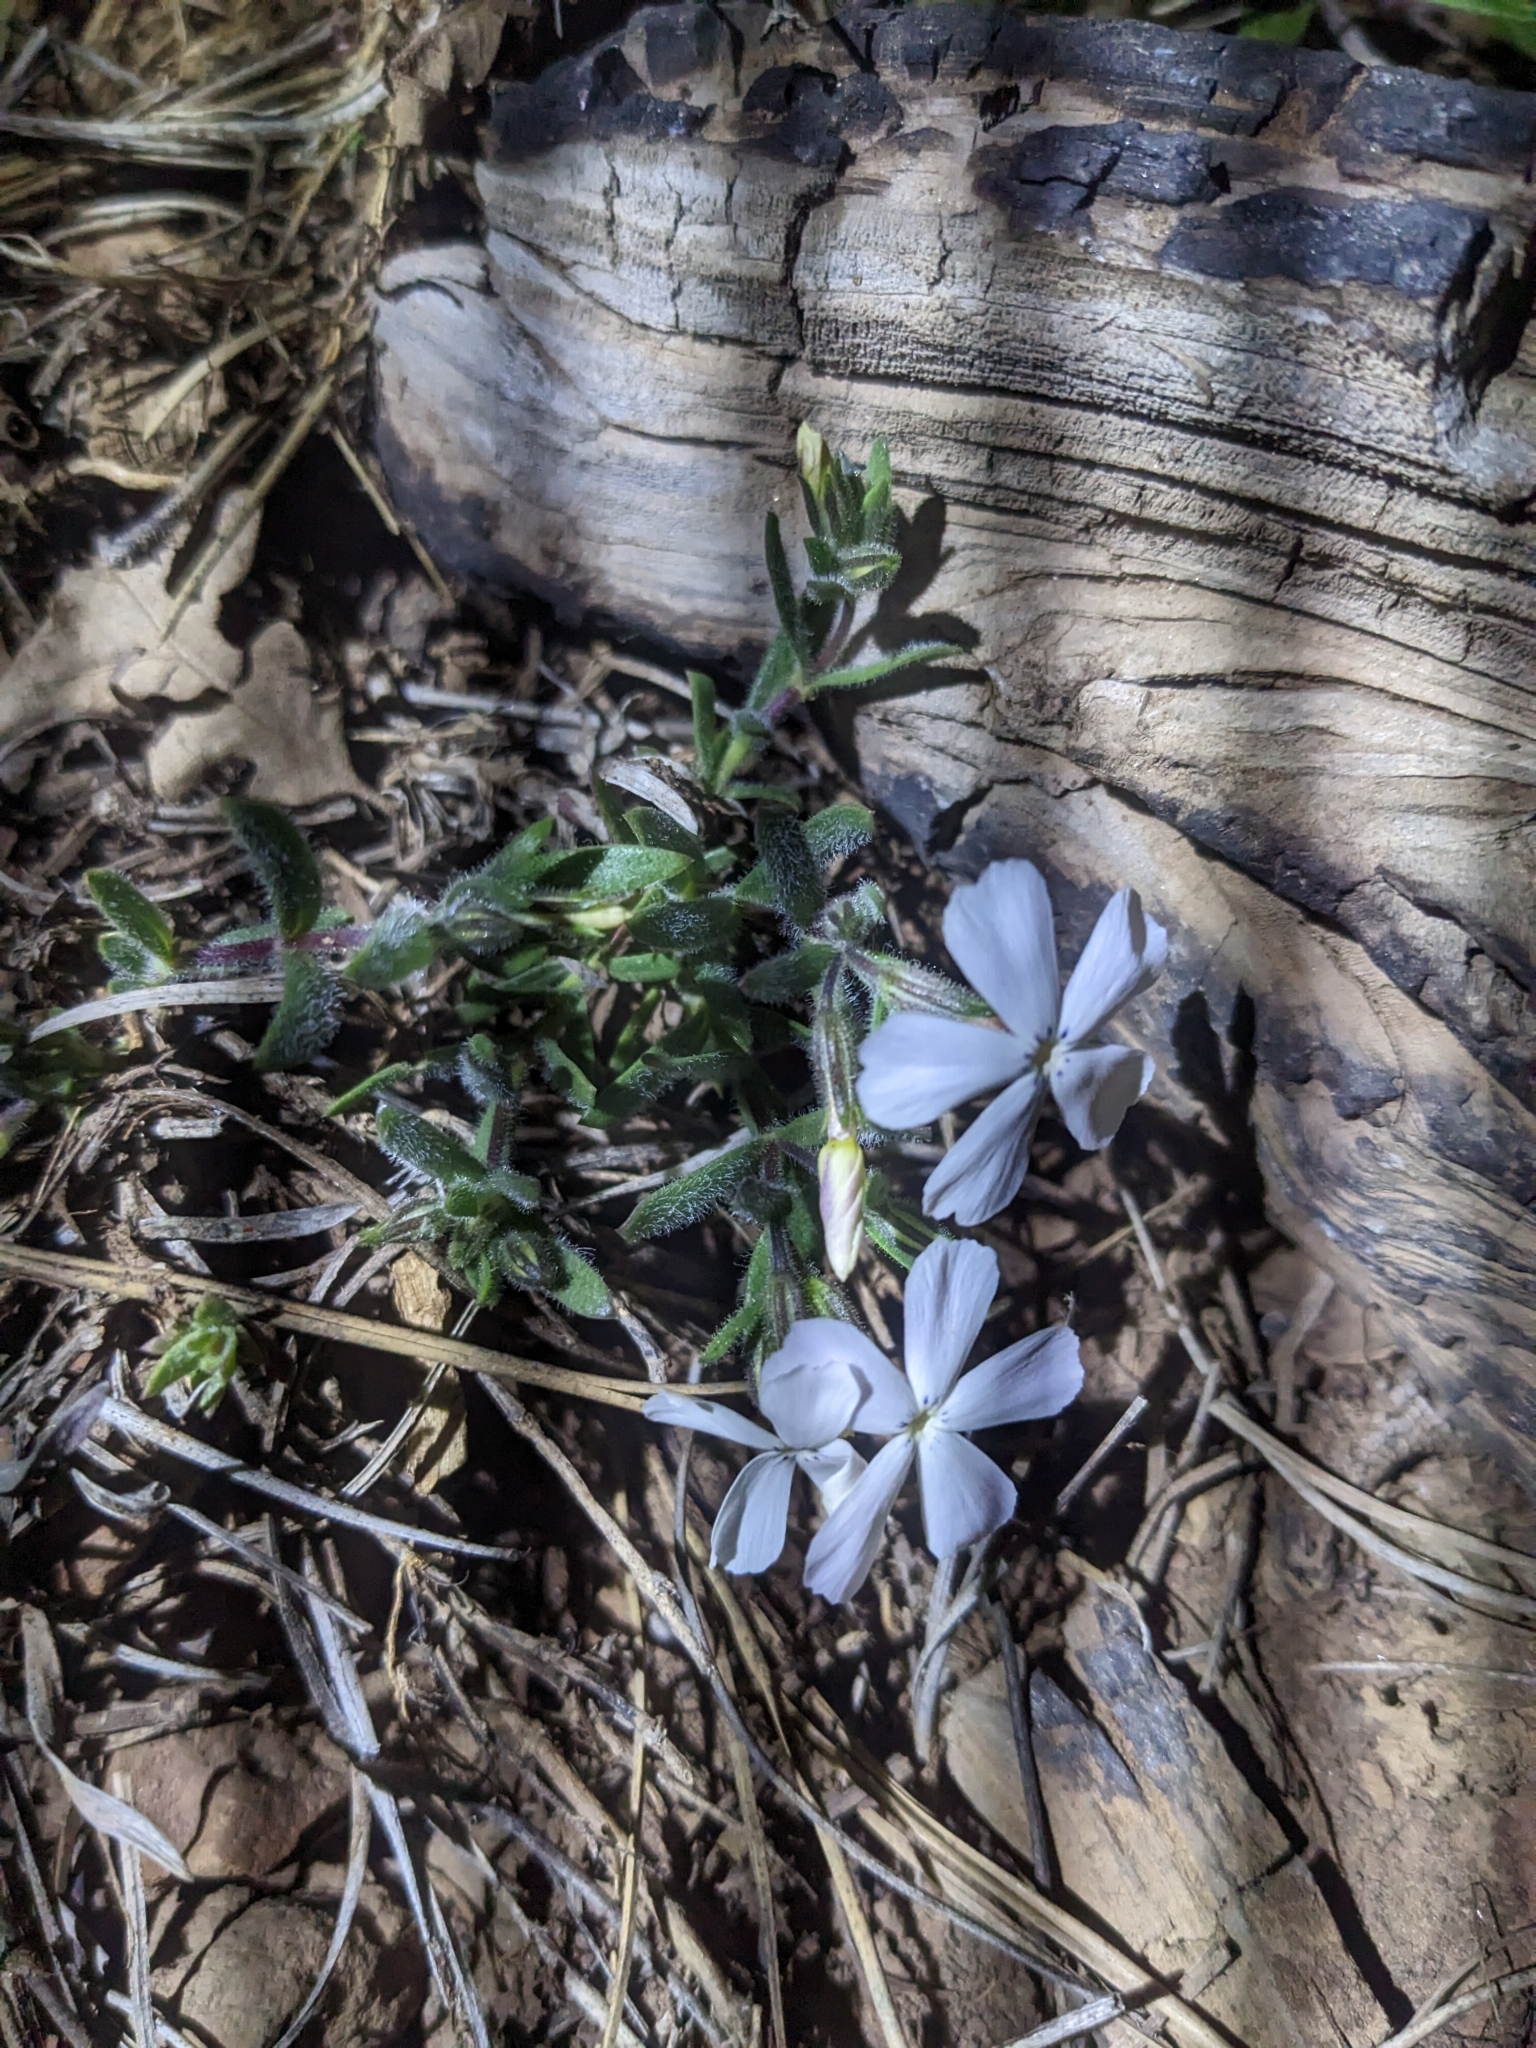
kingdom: Plantae
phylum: Tracheophyta
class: Magnoliopsida
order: Ericales
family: Polemoniaceae
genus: Phlox
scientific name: Phlox woodhousei
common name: Star phlox
